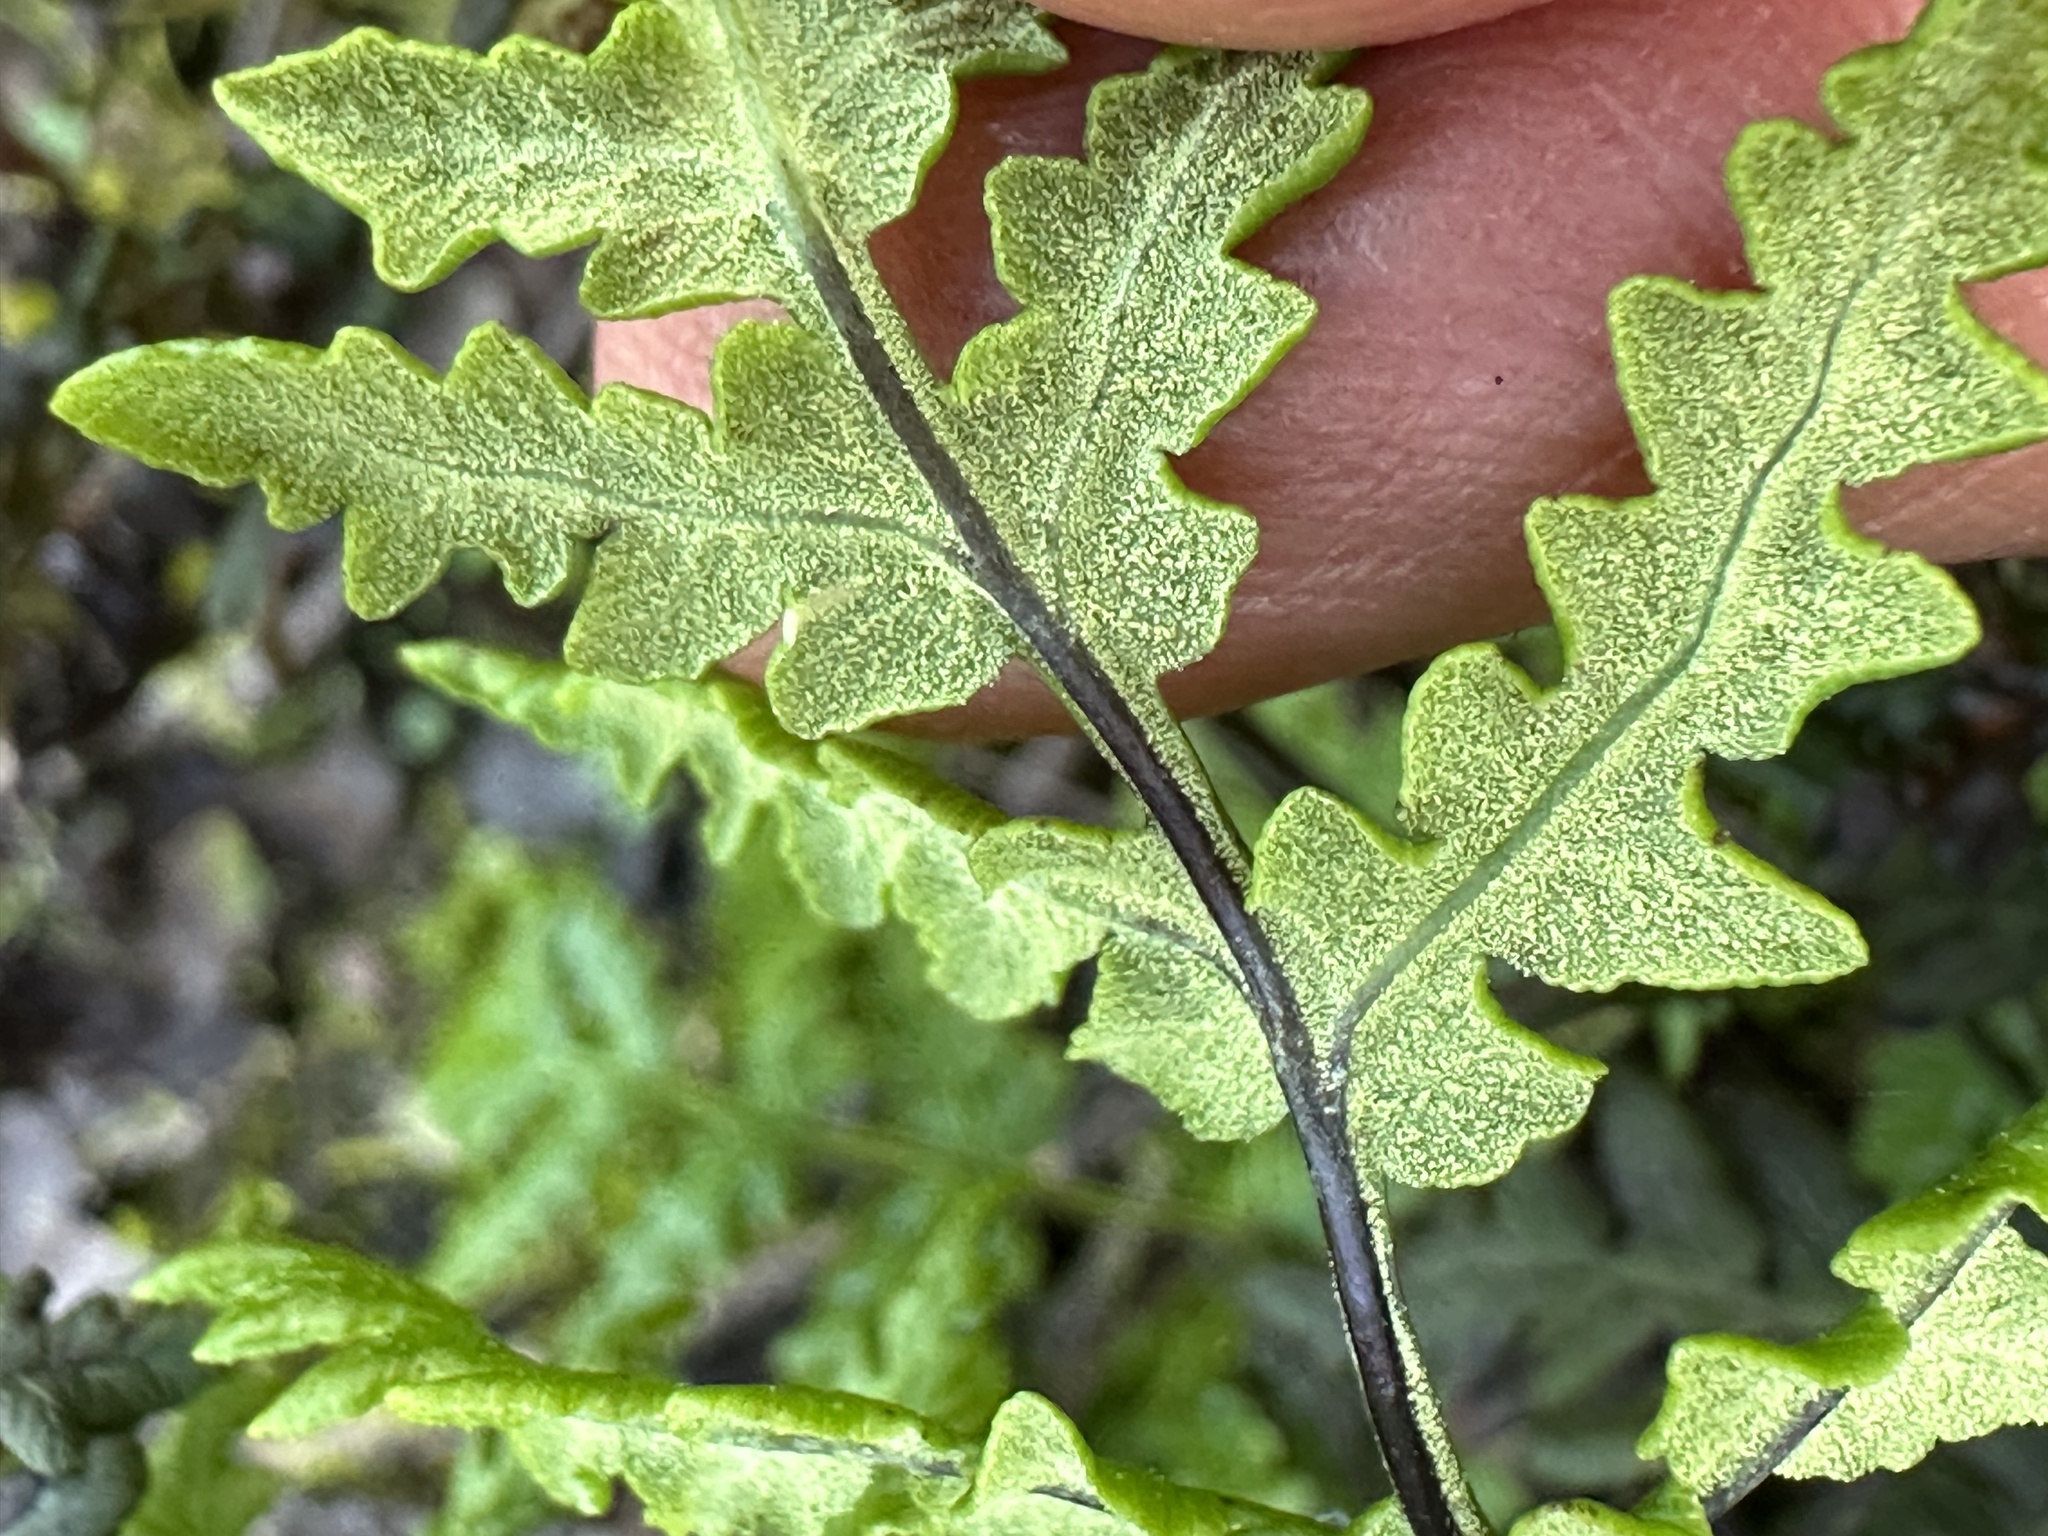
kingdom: Plantae
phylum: Tracheophyta
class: Polypodiopsida
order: Polypodiales
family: Pteridaceae
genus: Pentagramma
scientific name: Pentagramma triangularis
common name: Gold fern
